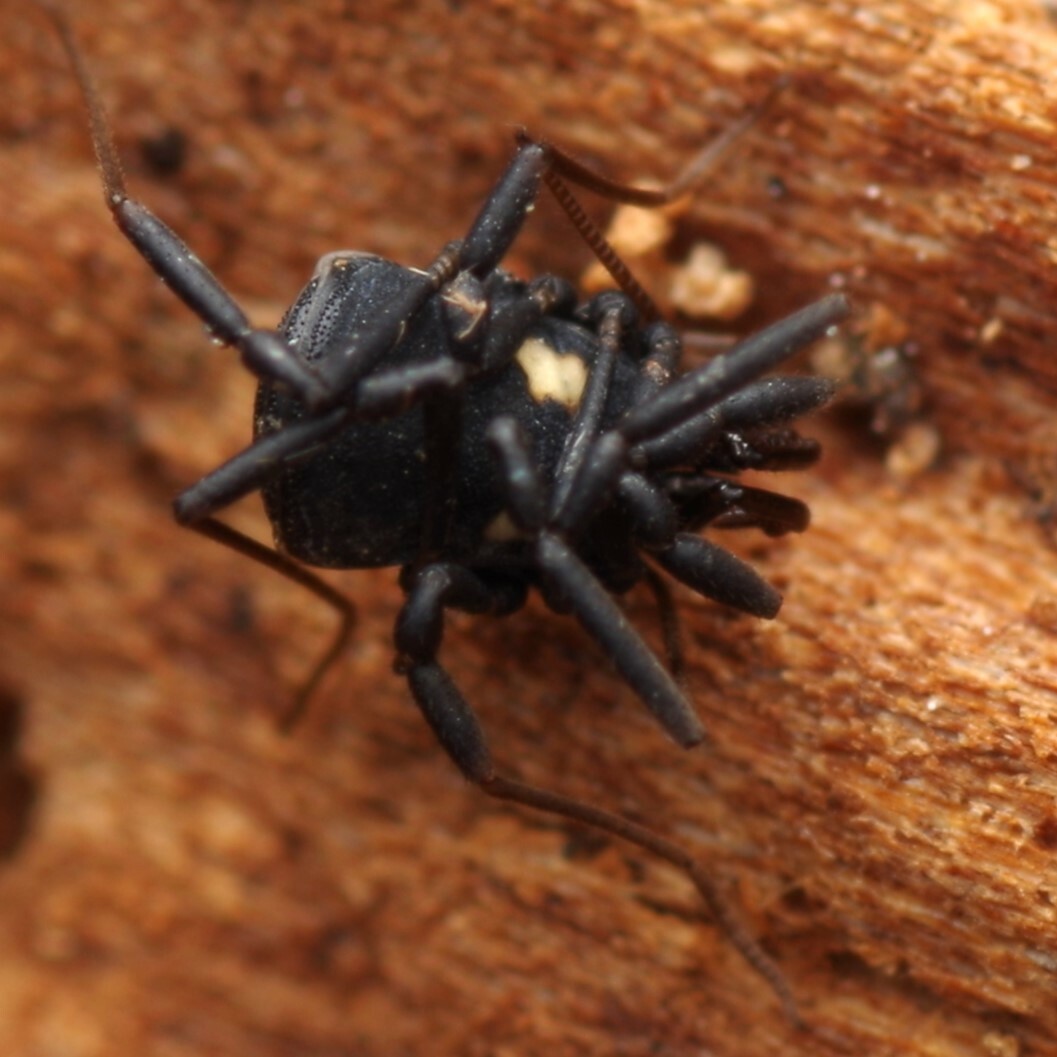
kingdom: Animalia
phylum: Arthropoda
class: Arachnida
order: Opiliones
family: Nemastomatidae
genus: Nemastoma
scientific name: Nemastoma bimaculatum
